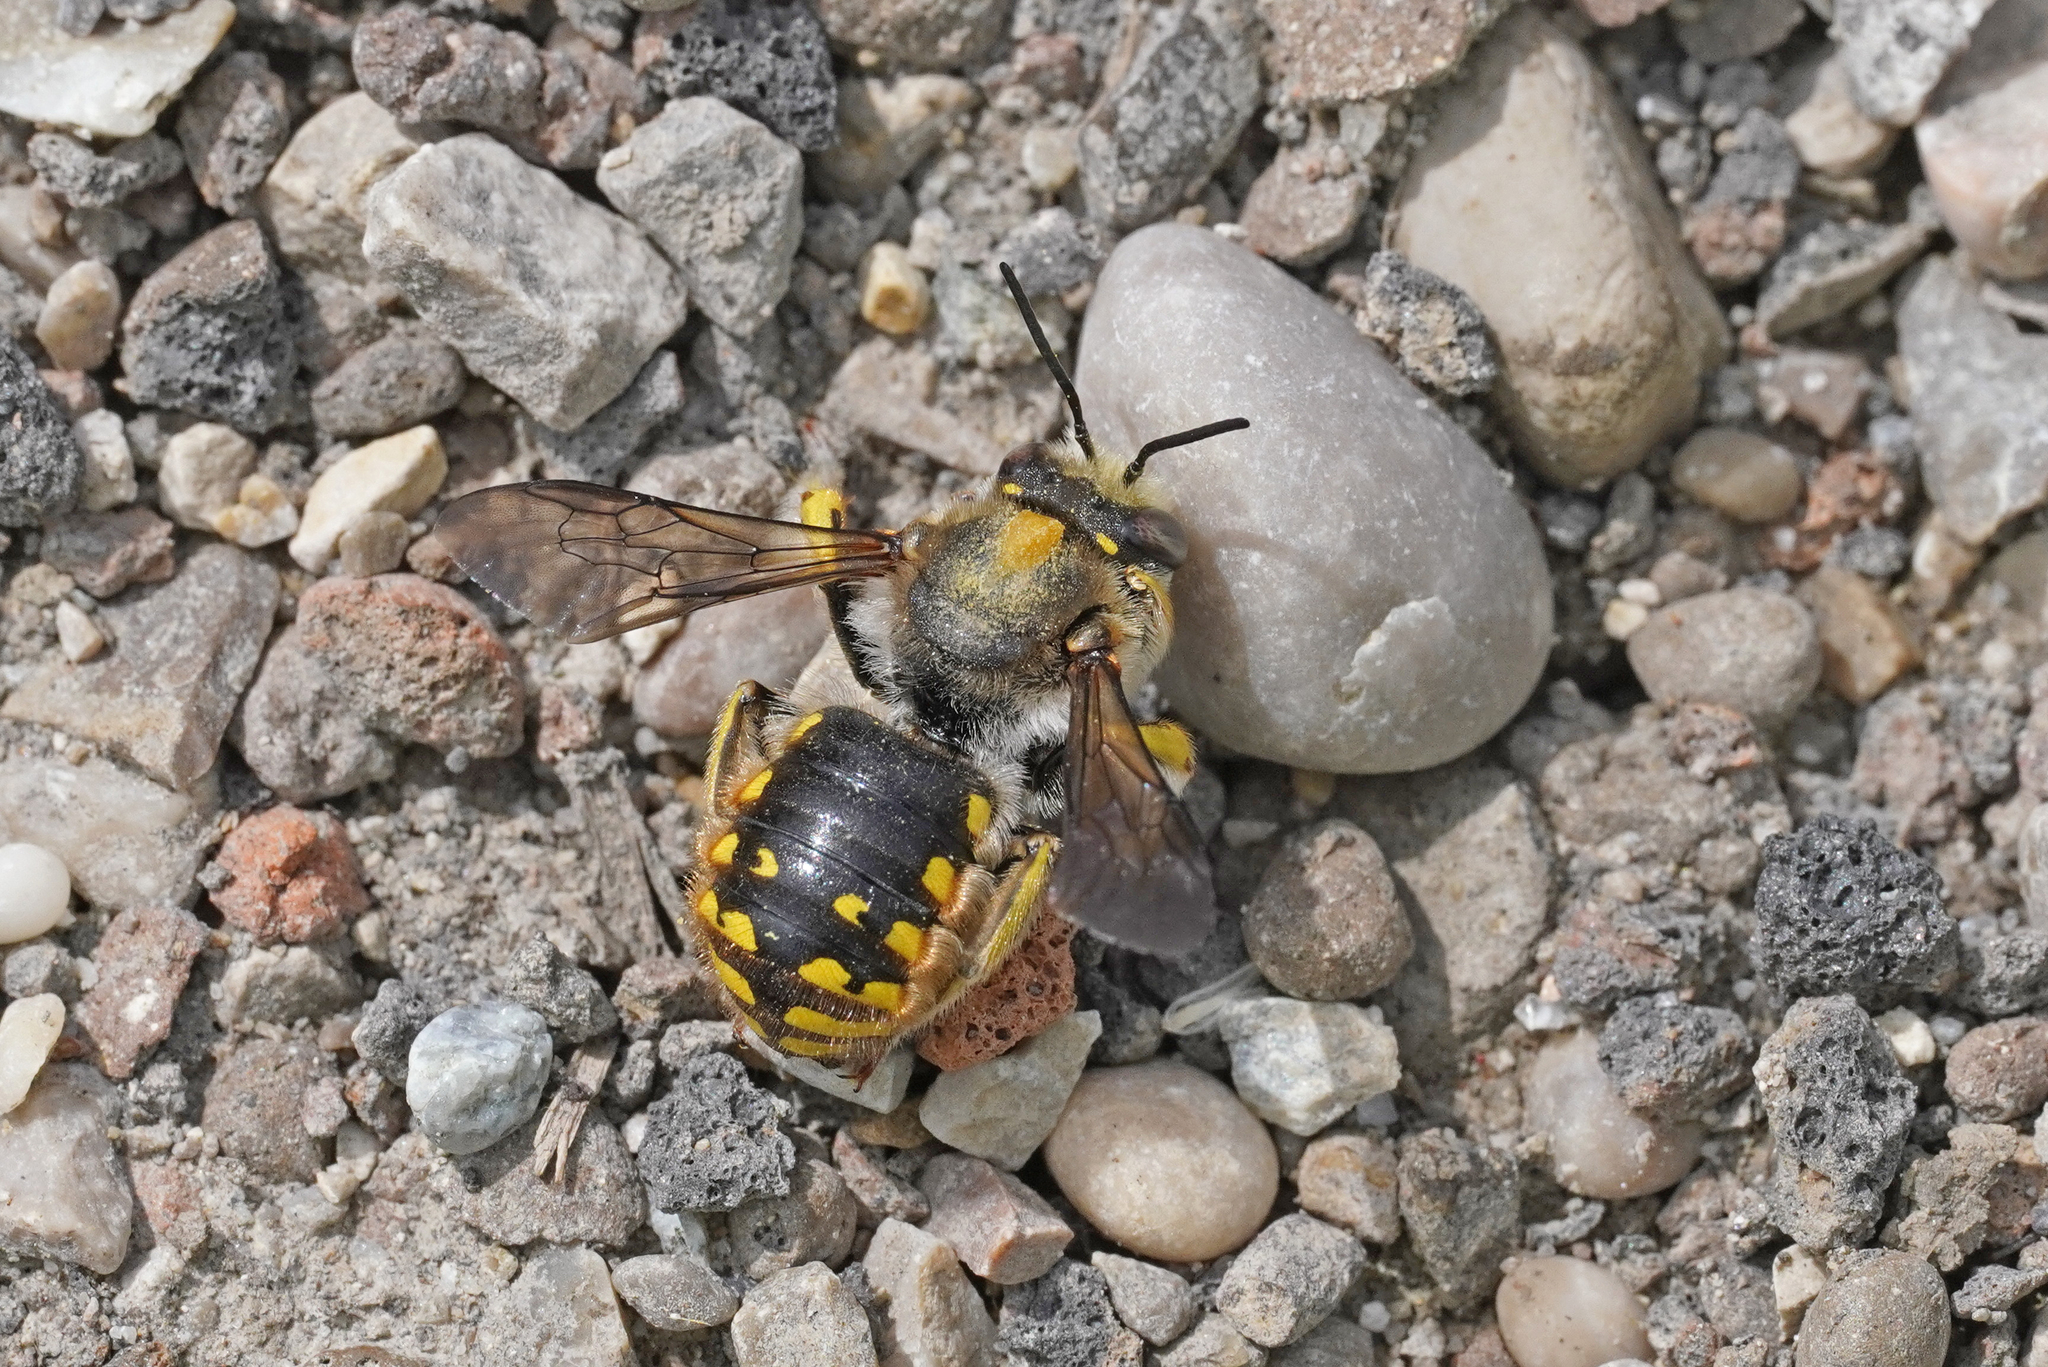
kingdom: Animalia
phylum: Arthropoda
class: Insecta
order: Hymenoptera
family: Megachilidae
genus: Anthidium
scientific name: Anthidium manicatum
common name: Wool carder bee
